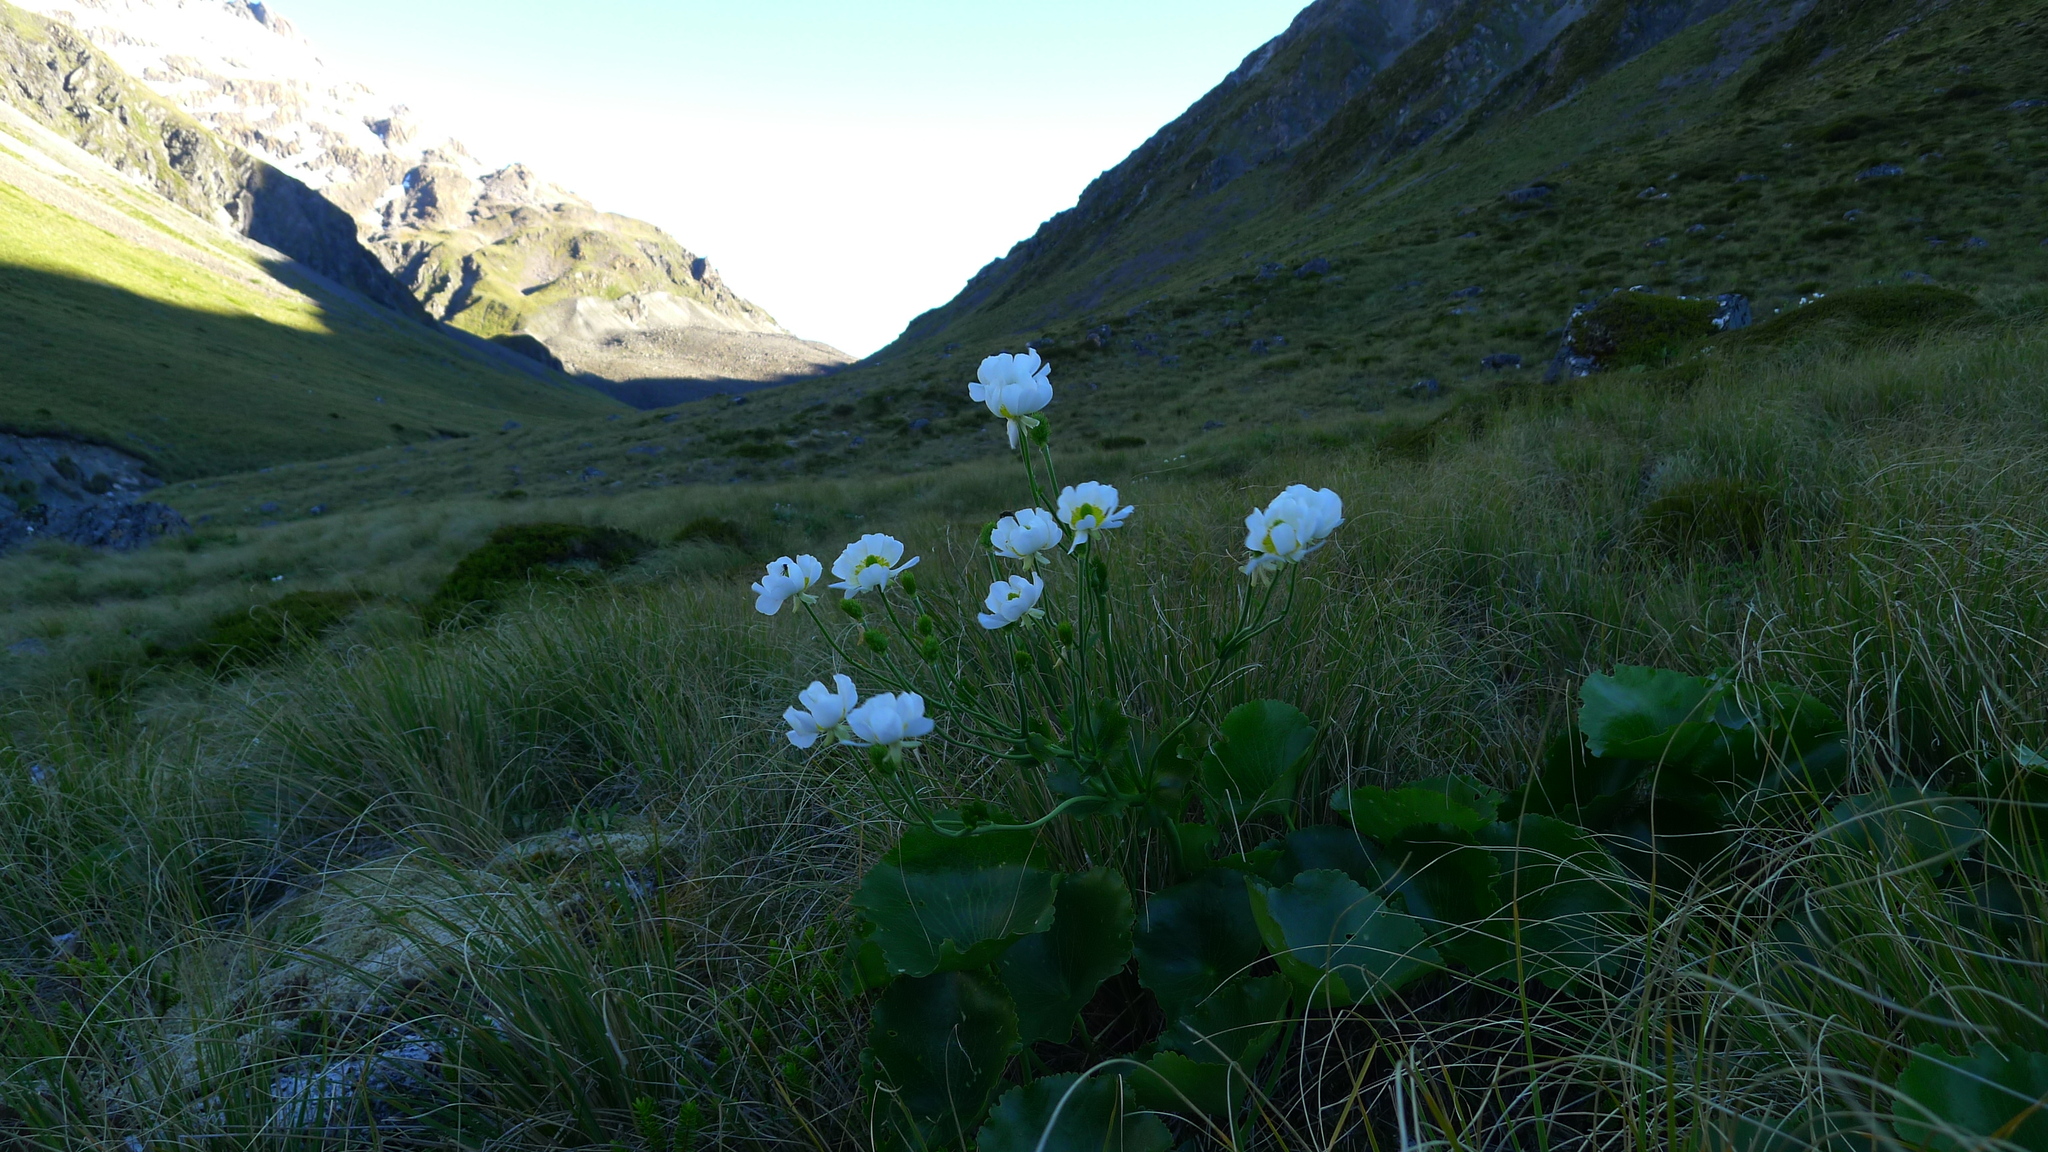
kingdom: Plantae
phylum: Tracheophyta
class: Magnoliopsida
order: Ranunculales
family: Ranunculaceae
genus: Ranunculus
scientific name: Ranunculus lyallii
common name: Mountain-lily
